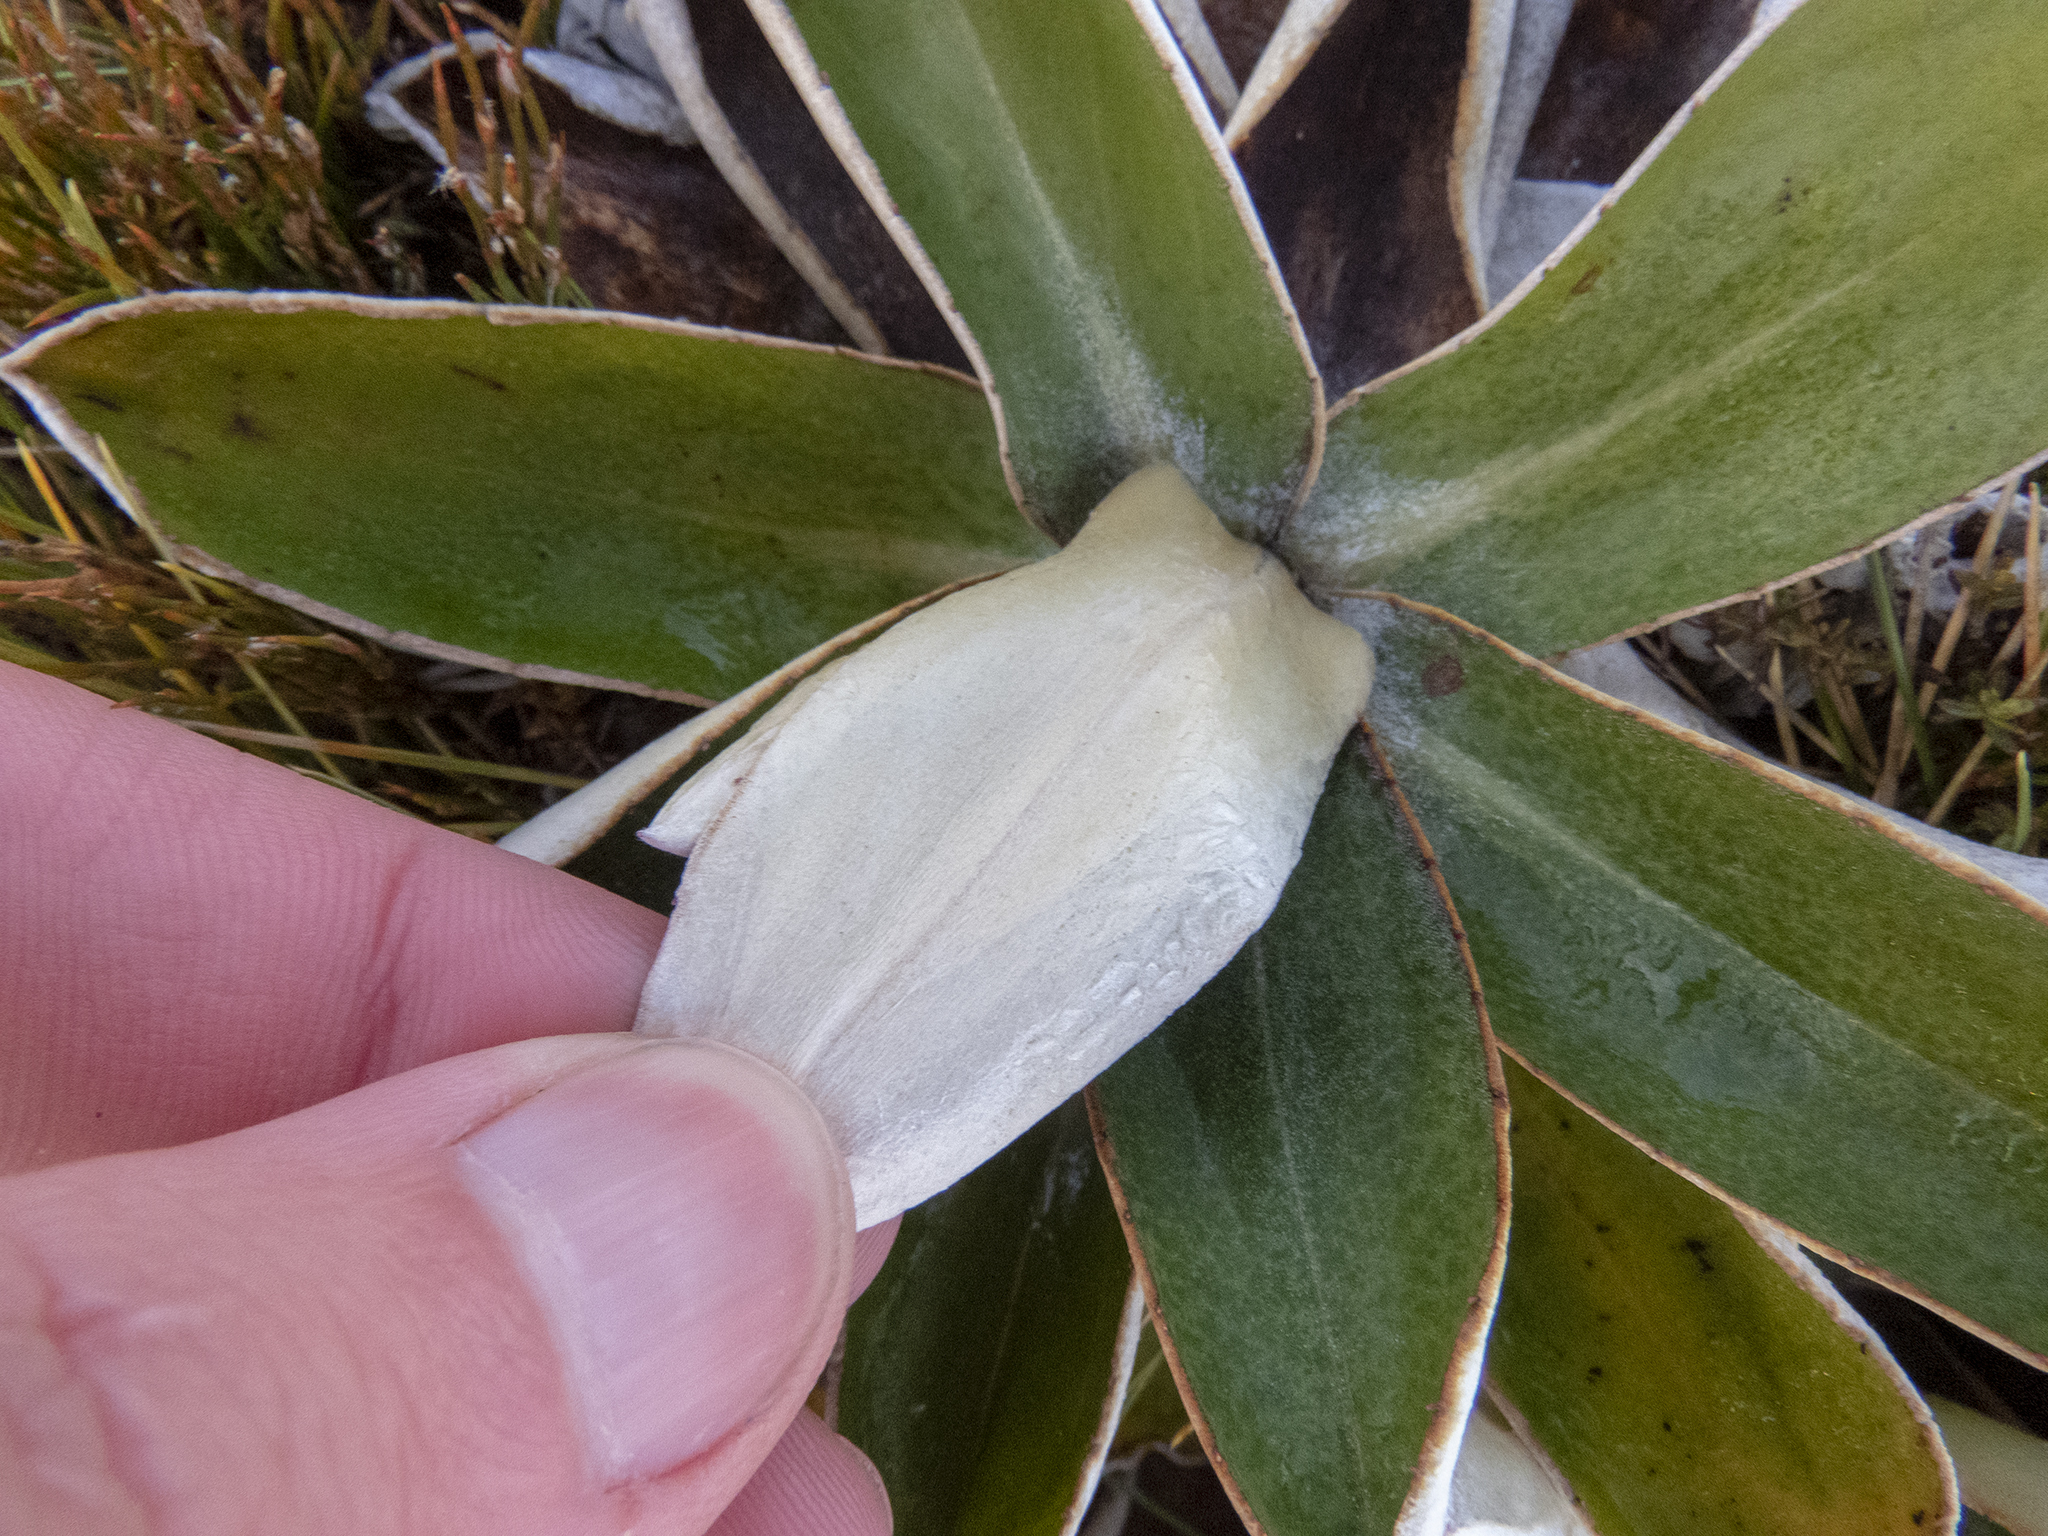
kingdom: Plantae
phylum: Tracheophyta
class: Magnoliopsida
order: Asterales
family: Asteraceae
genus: Celmisia
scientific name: Celmisia dallii
